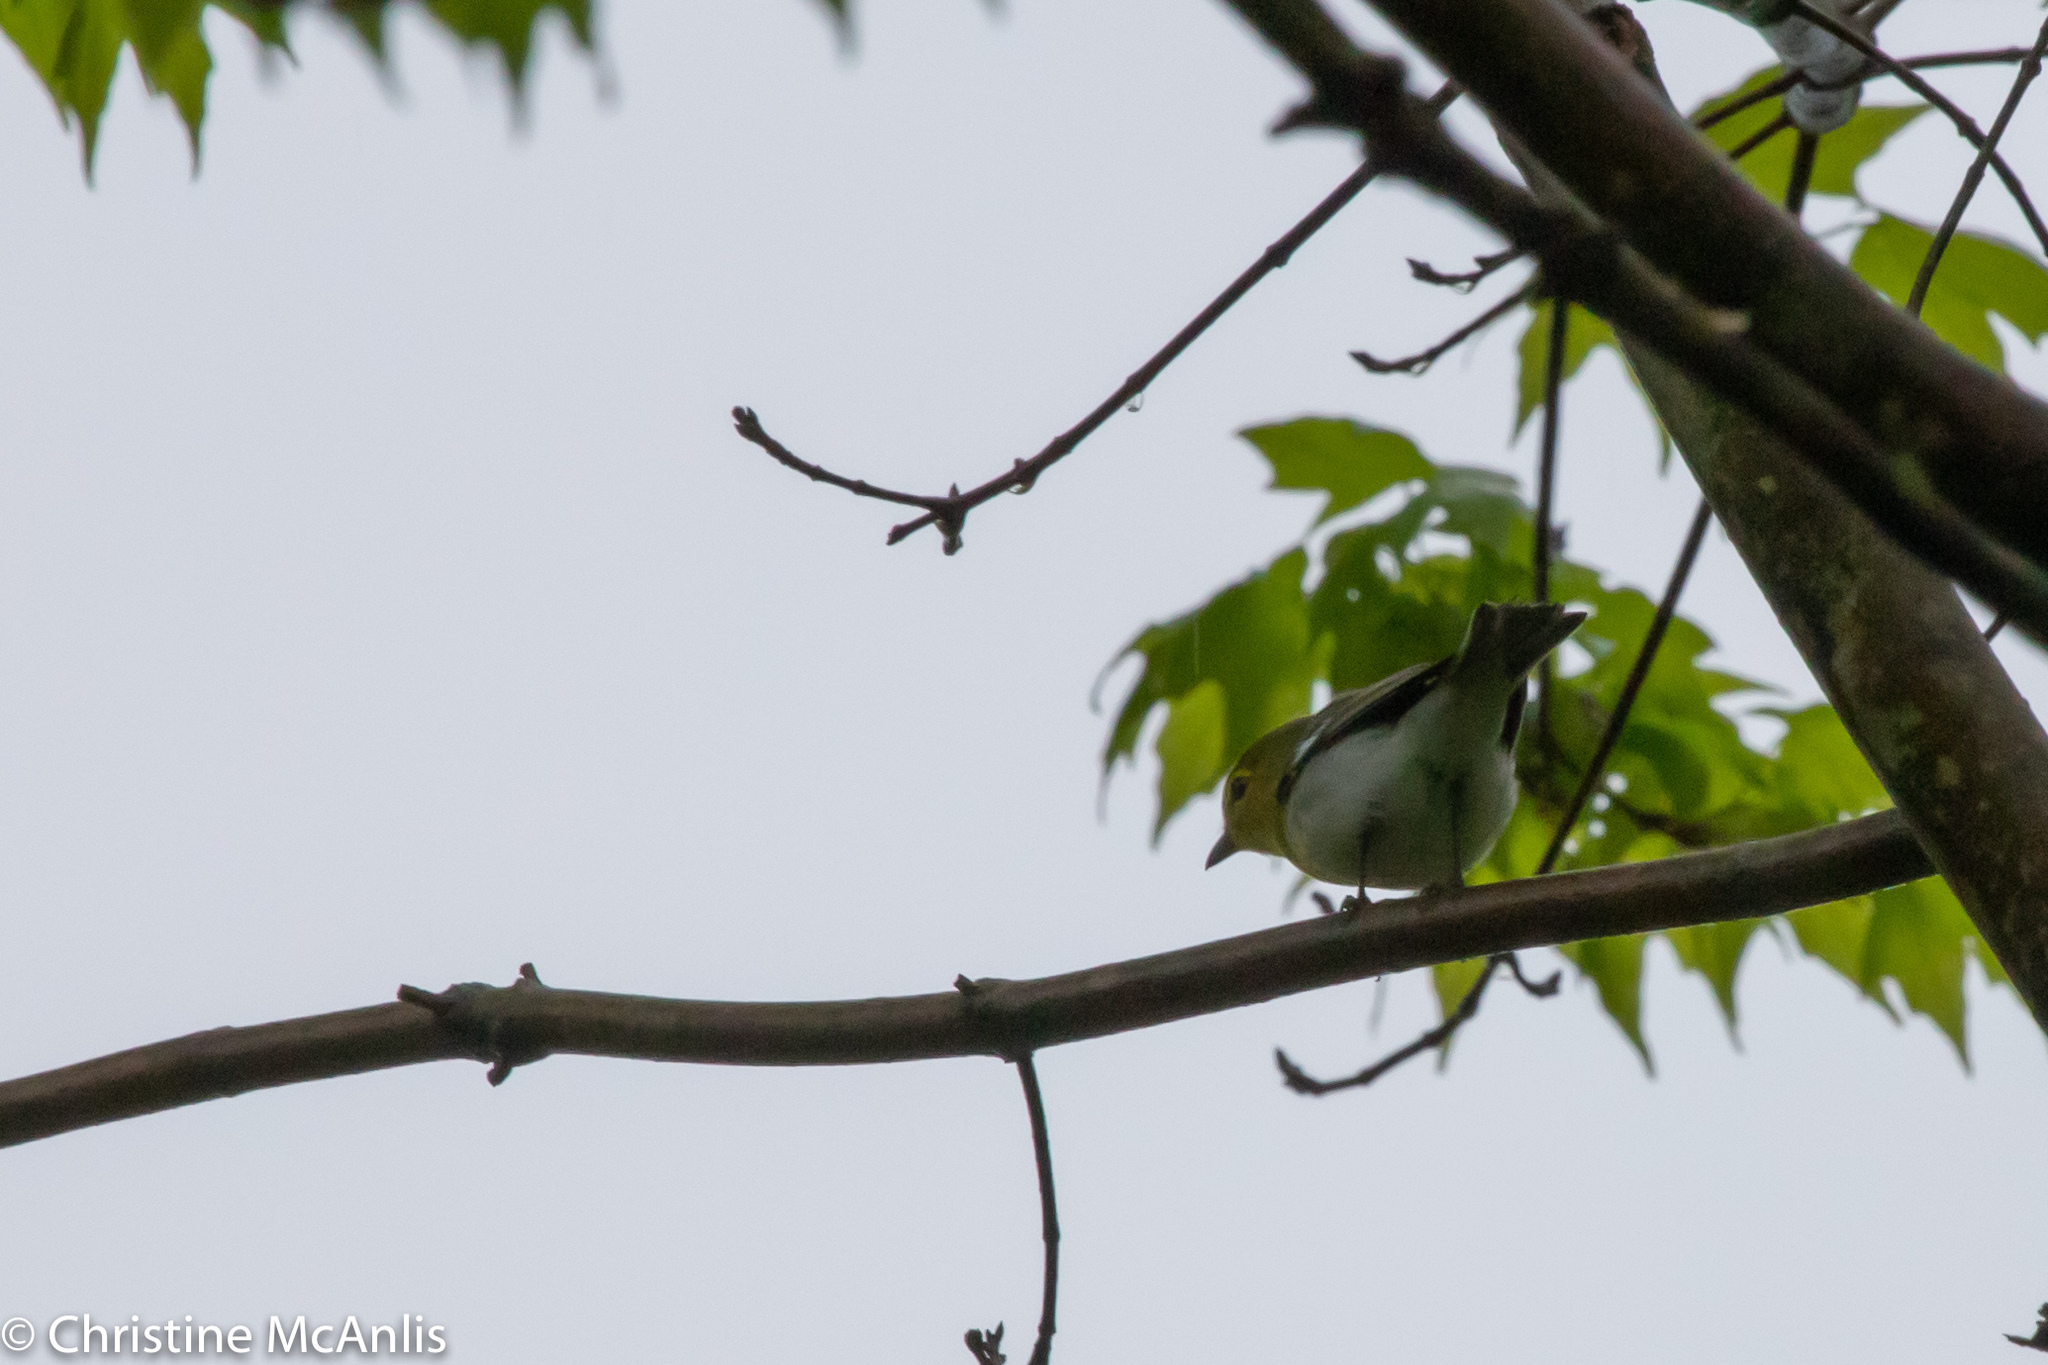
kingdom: Animalia
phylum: Chordata
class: Aves
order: Passeriformes
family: Vireonidae
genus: Vireo
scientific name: Vireo flavifrons
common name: Yellow-throated vireo
